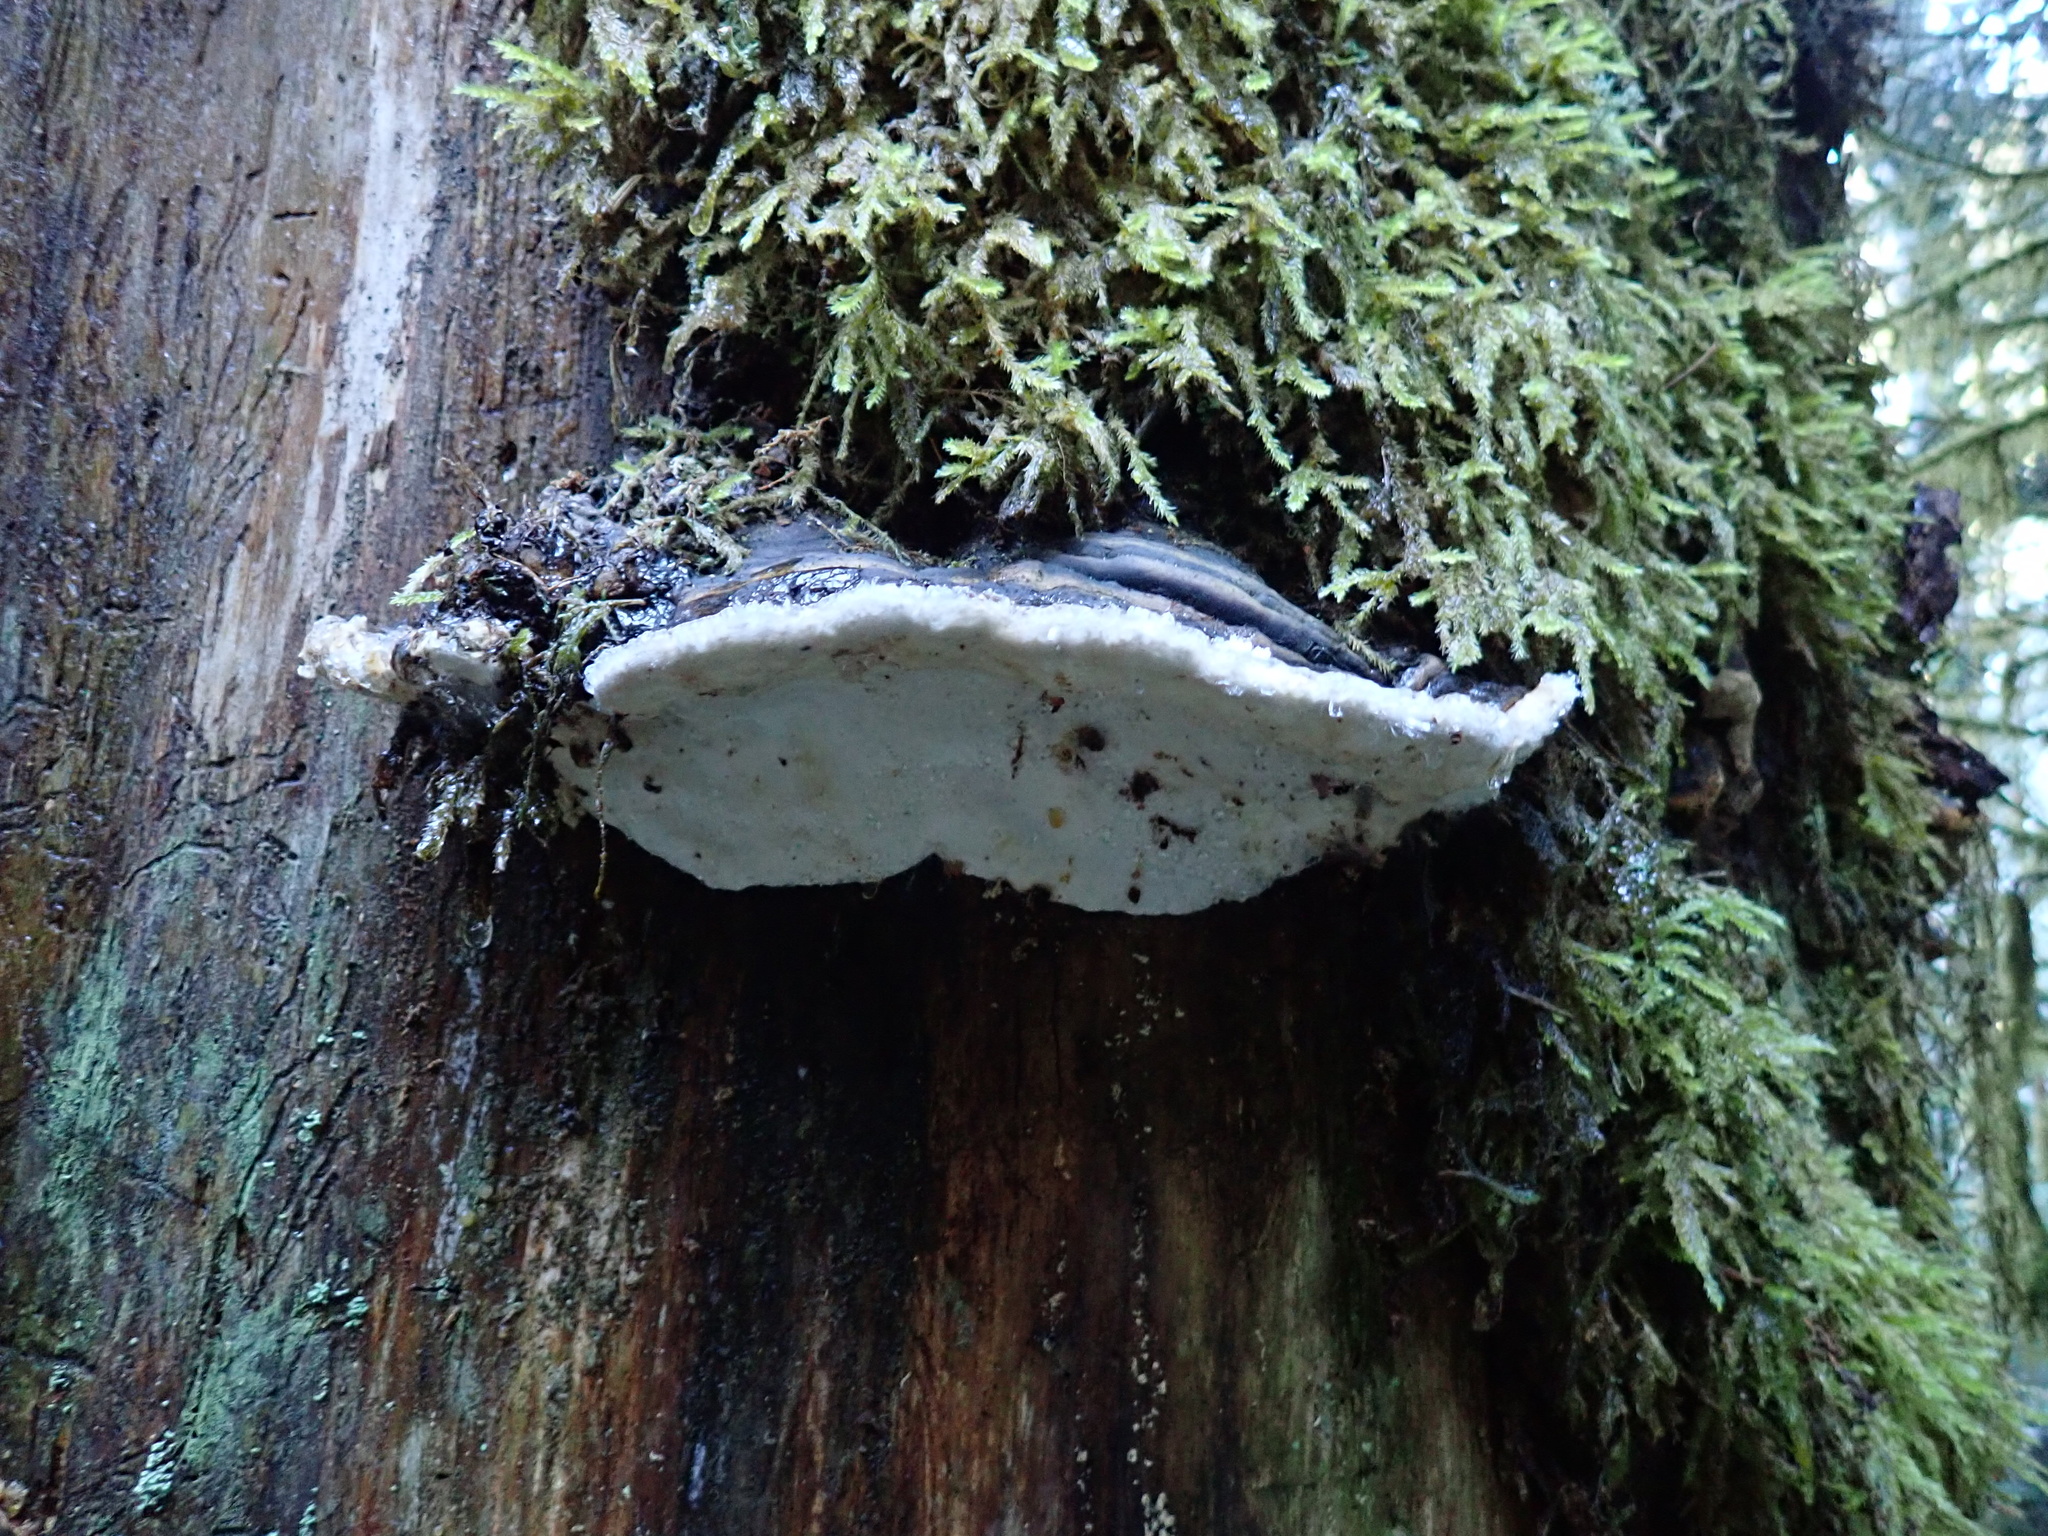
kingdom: Fungi
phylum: Basidiomycota
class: Agaricomycetes
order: Polyporales
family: Fomitopsidaceae
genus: Fomitopsis
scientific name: Fomitopsis ochracea
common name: American brown fomitopsis
